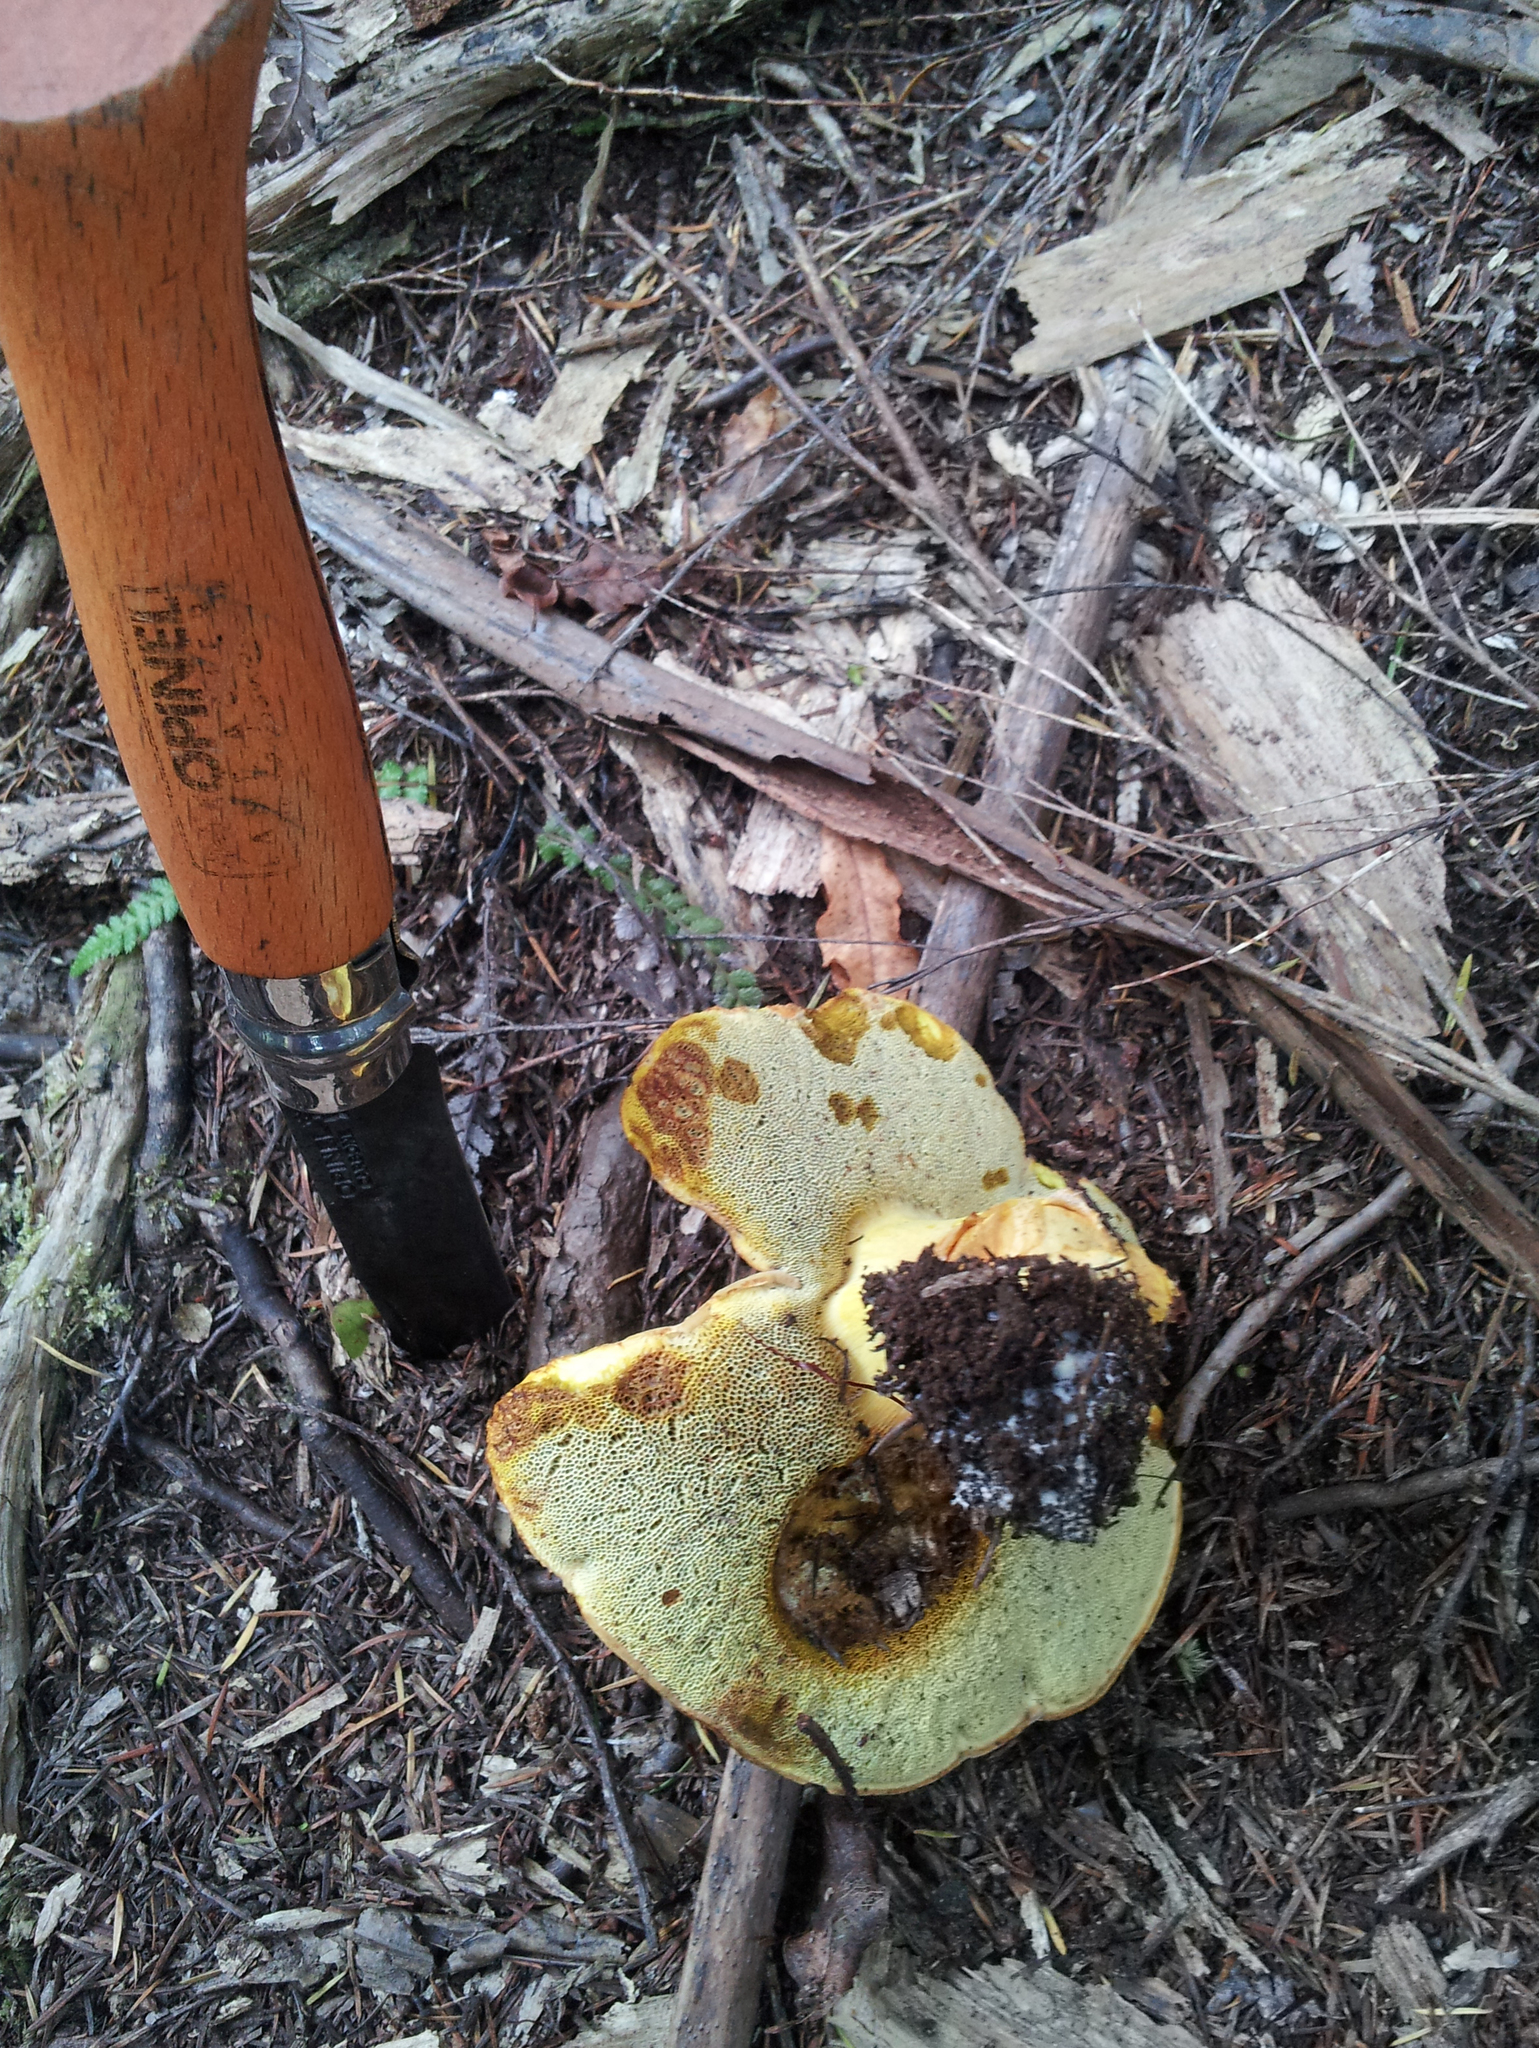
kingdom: Fungi
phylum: Basidiomycota
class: Agaricomycetes
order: Boletales
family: Boletaceae
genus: Buchwaldoboletus
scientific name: Buchwaldoboletus
